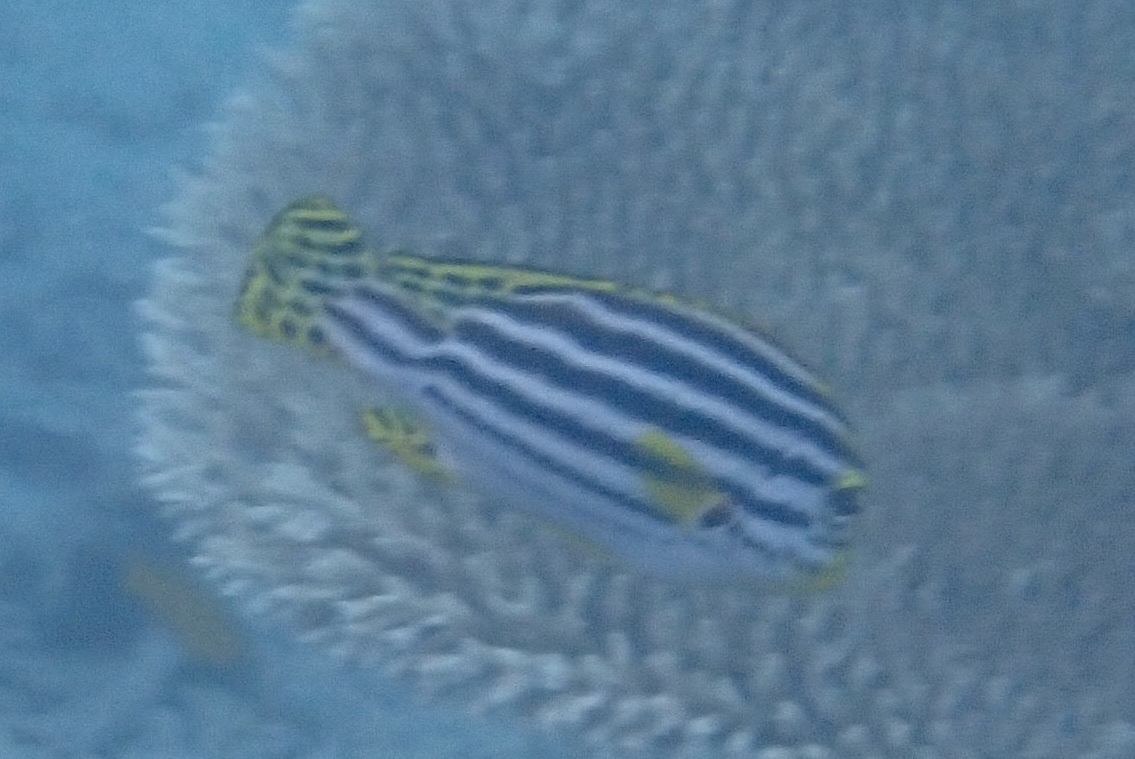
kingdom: Animalia
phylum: Chordata
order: Perciformes
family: Haemulidae
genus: Plectorhinchus
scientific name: Plectorhinchus vittatus
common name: Oriental sweetlips
